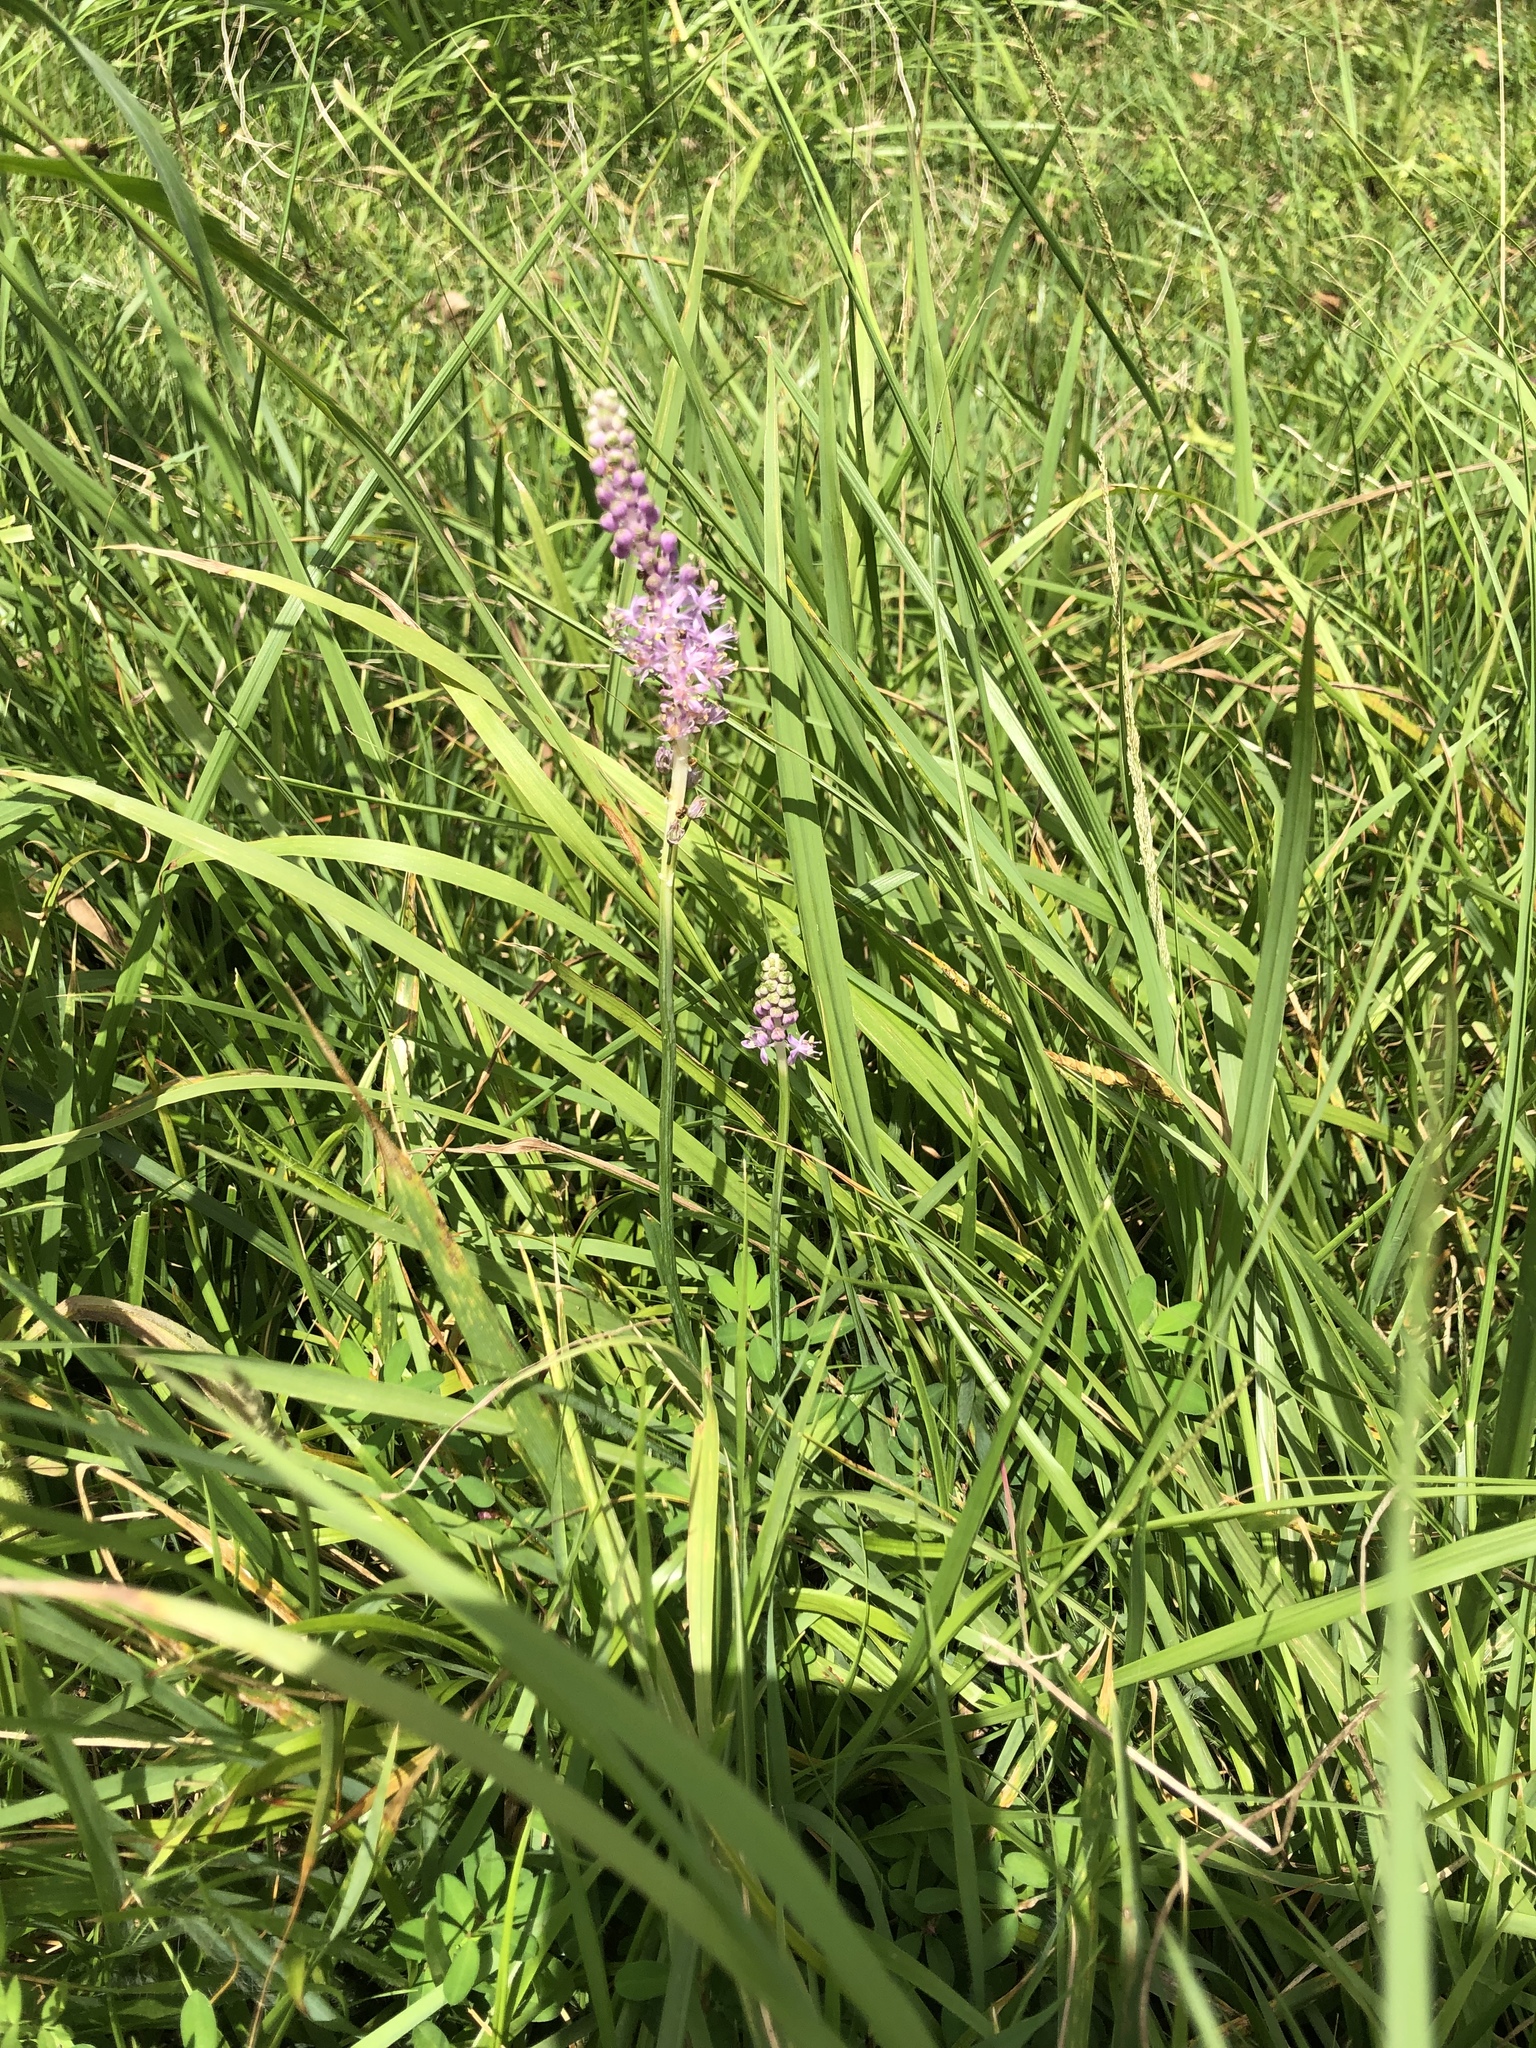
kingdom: Plantae
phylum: Tracheophyta
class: Liliopsida
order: Asparagales
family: Asparagaceae
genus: Barnardia
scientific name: Barnardia japonica
